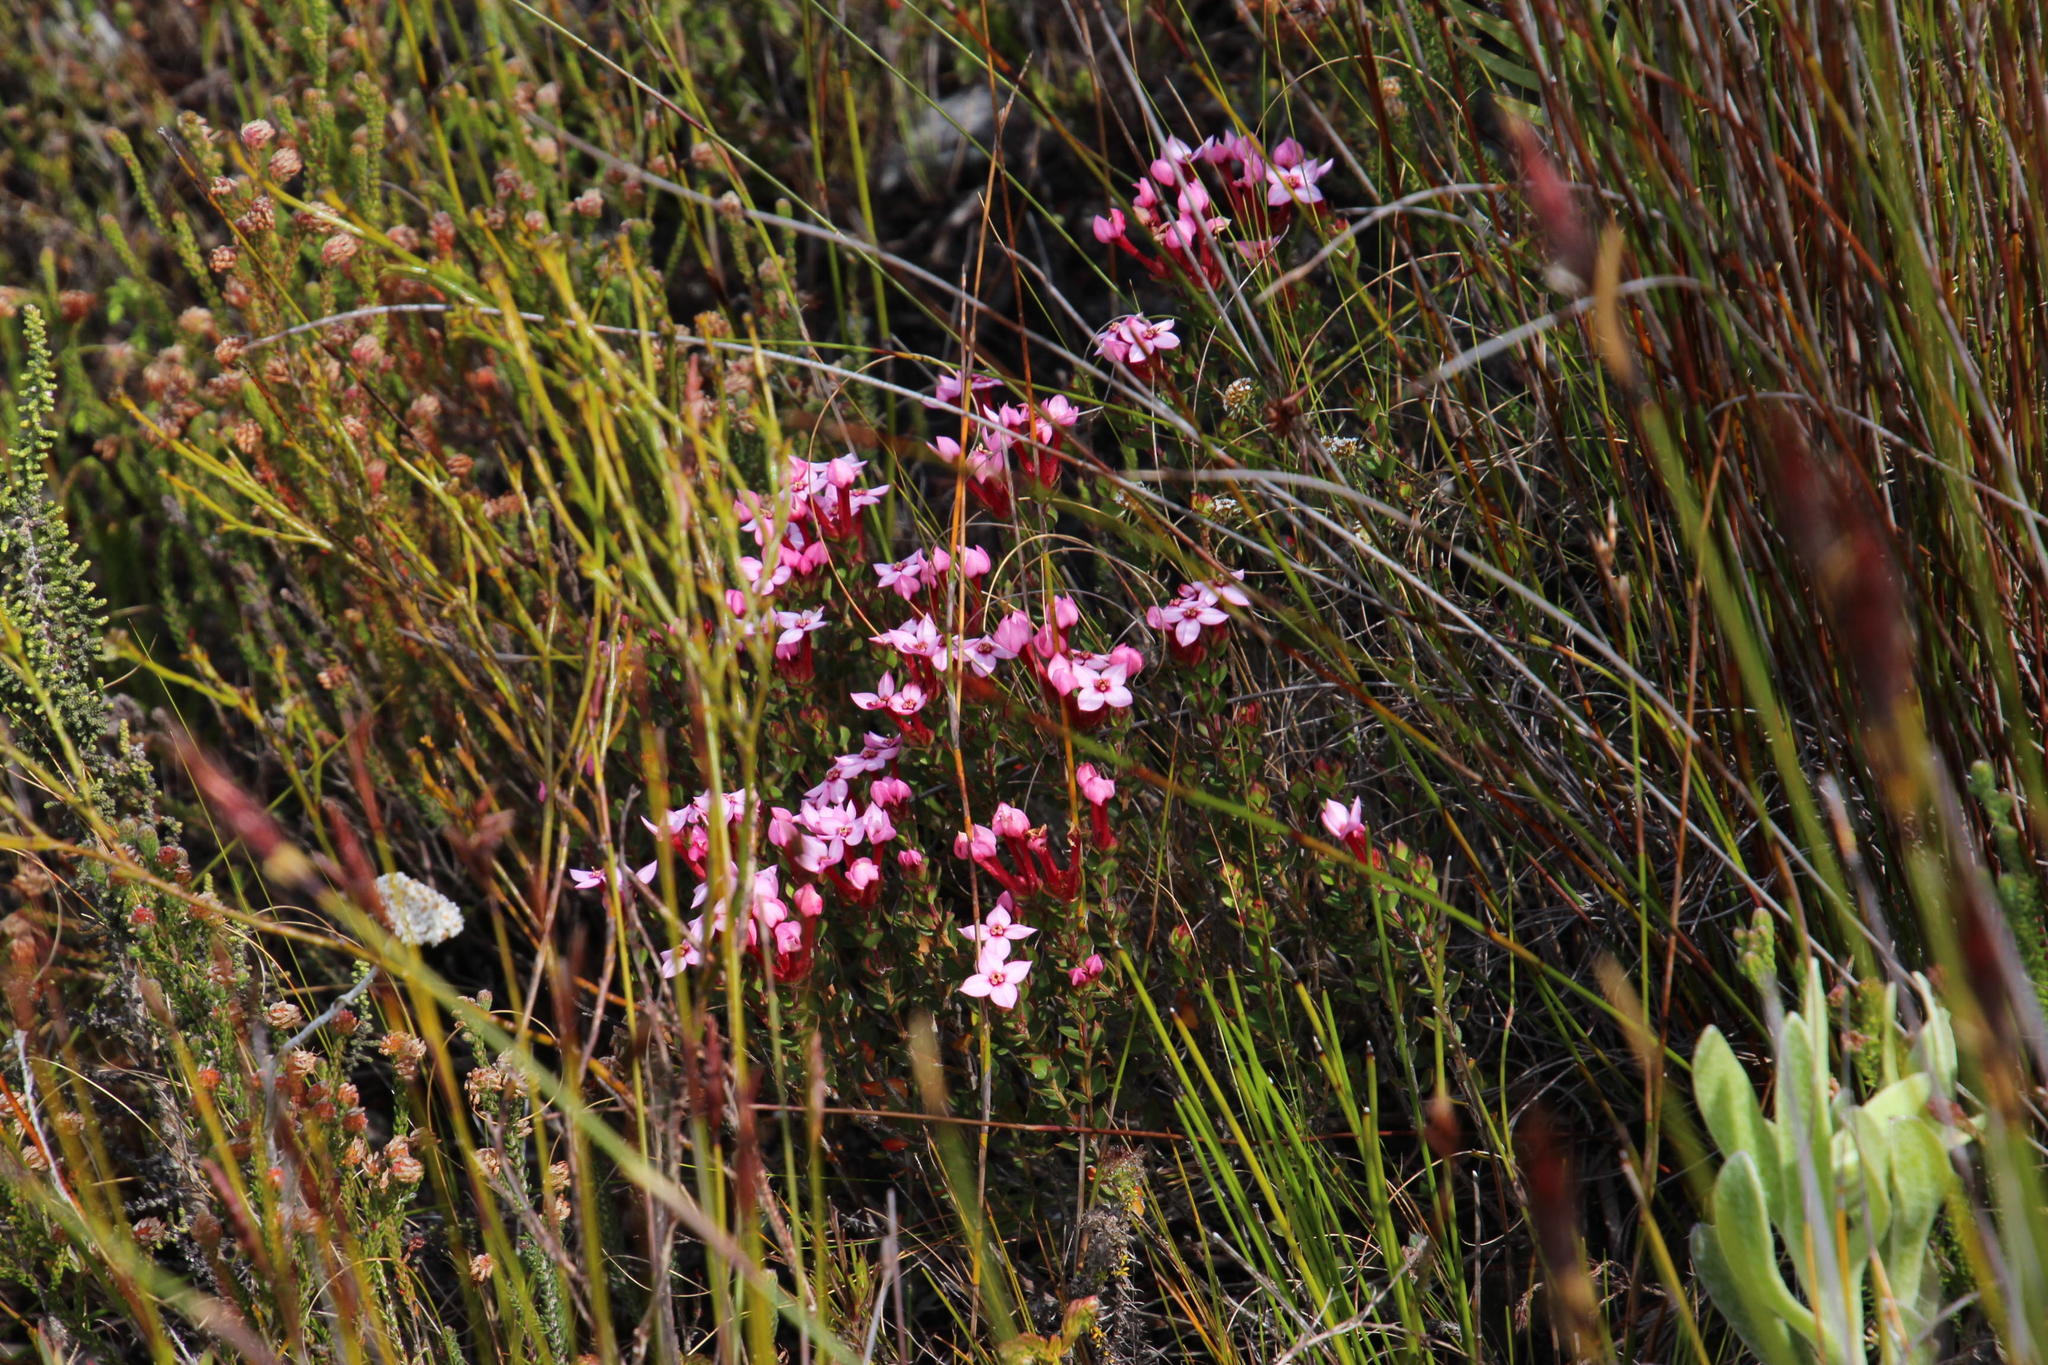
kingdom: Plantae
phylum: Tracheophyta
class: Magnoliopsida
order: Myrtales
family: Penaeaceae
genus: Brachysiphon
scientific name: Brachysiphon acutus
